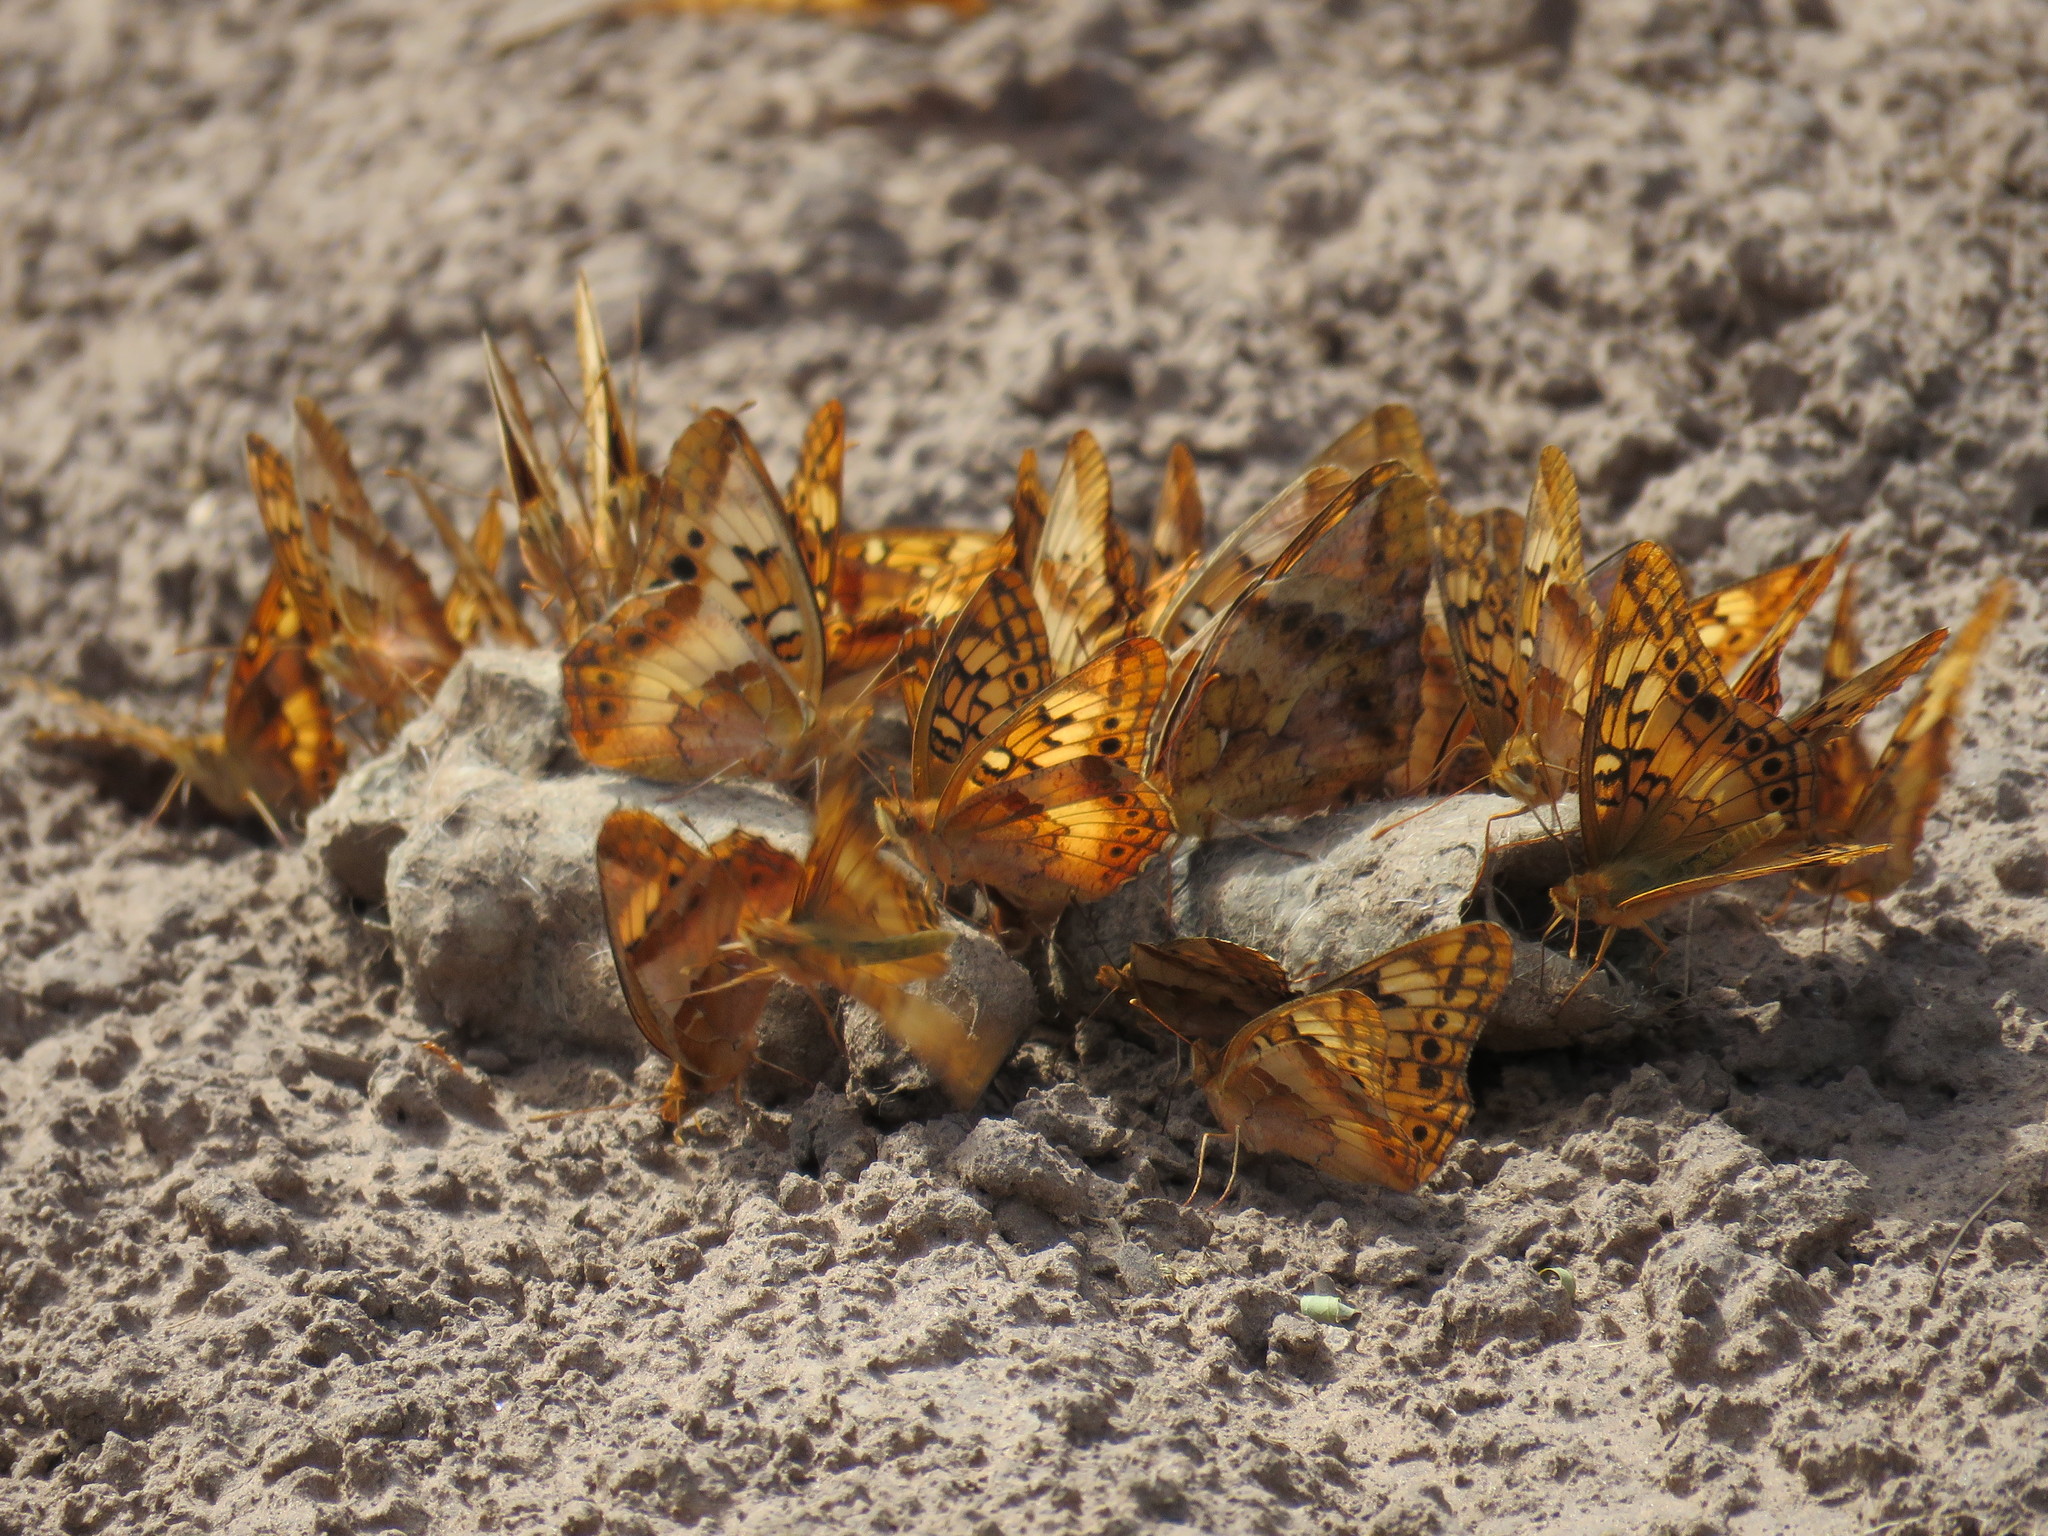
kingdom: Animalia
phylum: Arthropoda
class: Insecta
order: Lepidoptera
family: Nymphalidae
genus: Euptoieta
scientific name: Euptoieta hortensia
